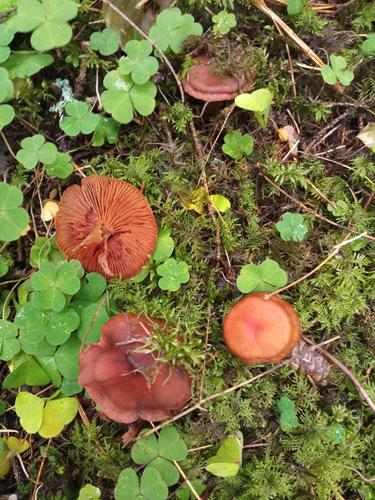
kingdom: Fungi
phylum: Basidiomycota
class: Agaricomycetes
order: Agaricales
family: Cortinariaceae
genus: Cortinarius
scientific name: Cortinarius
